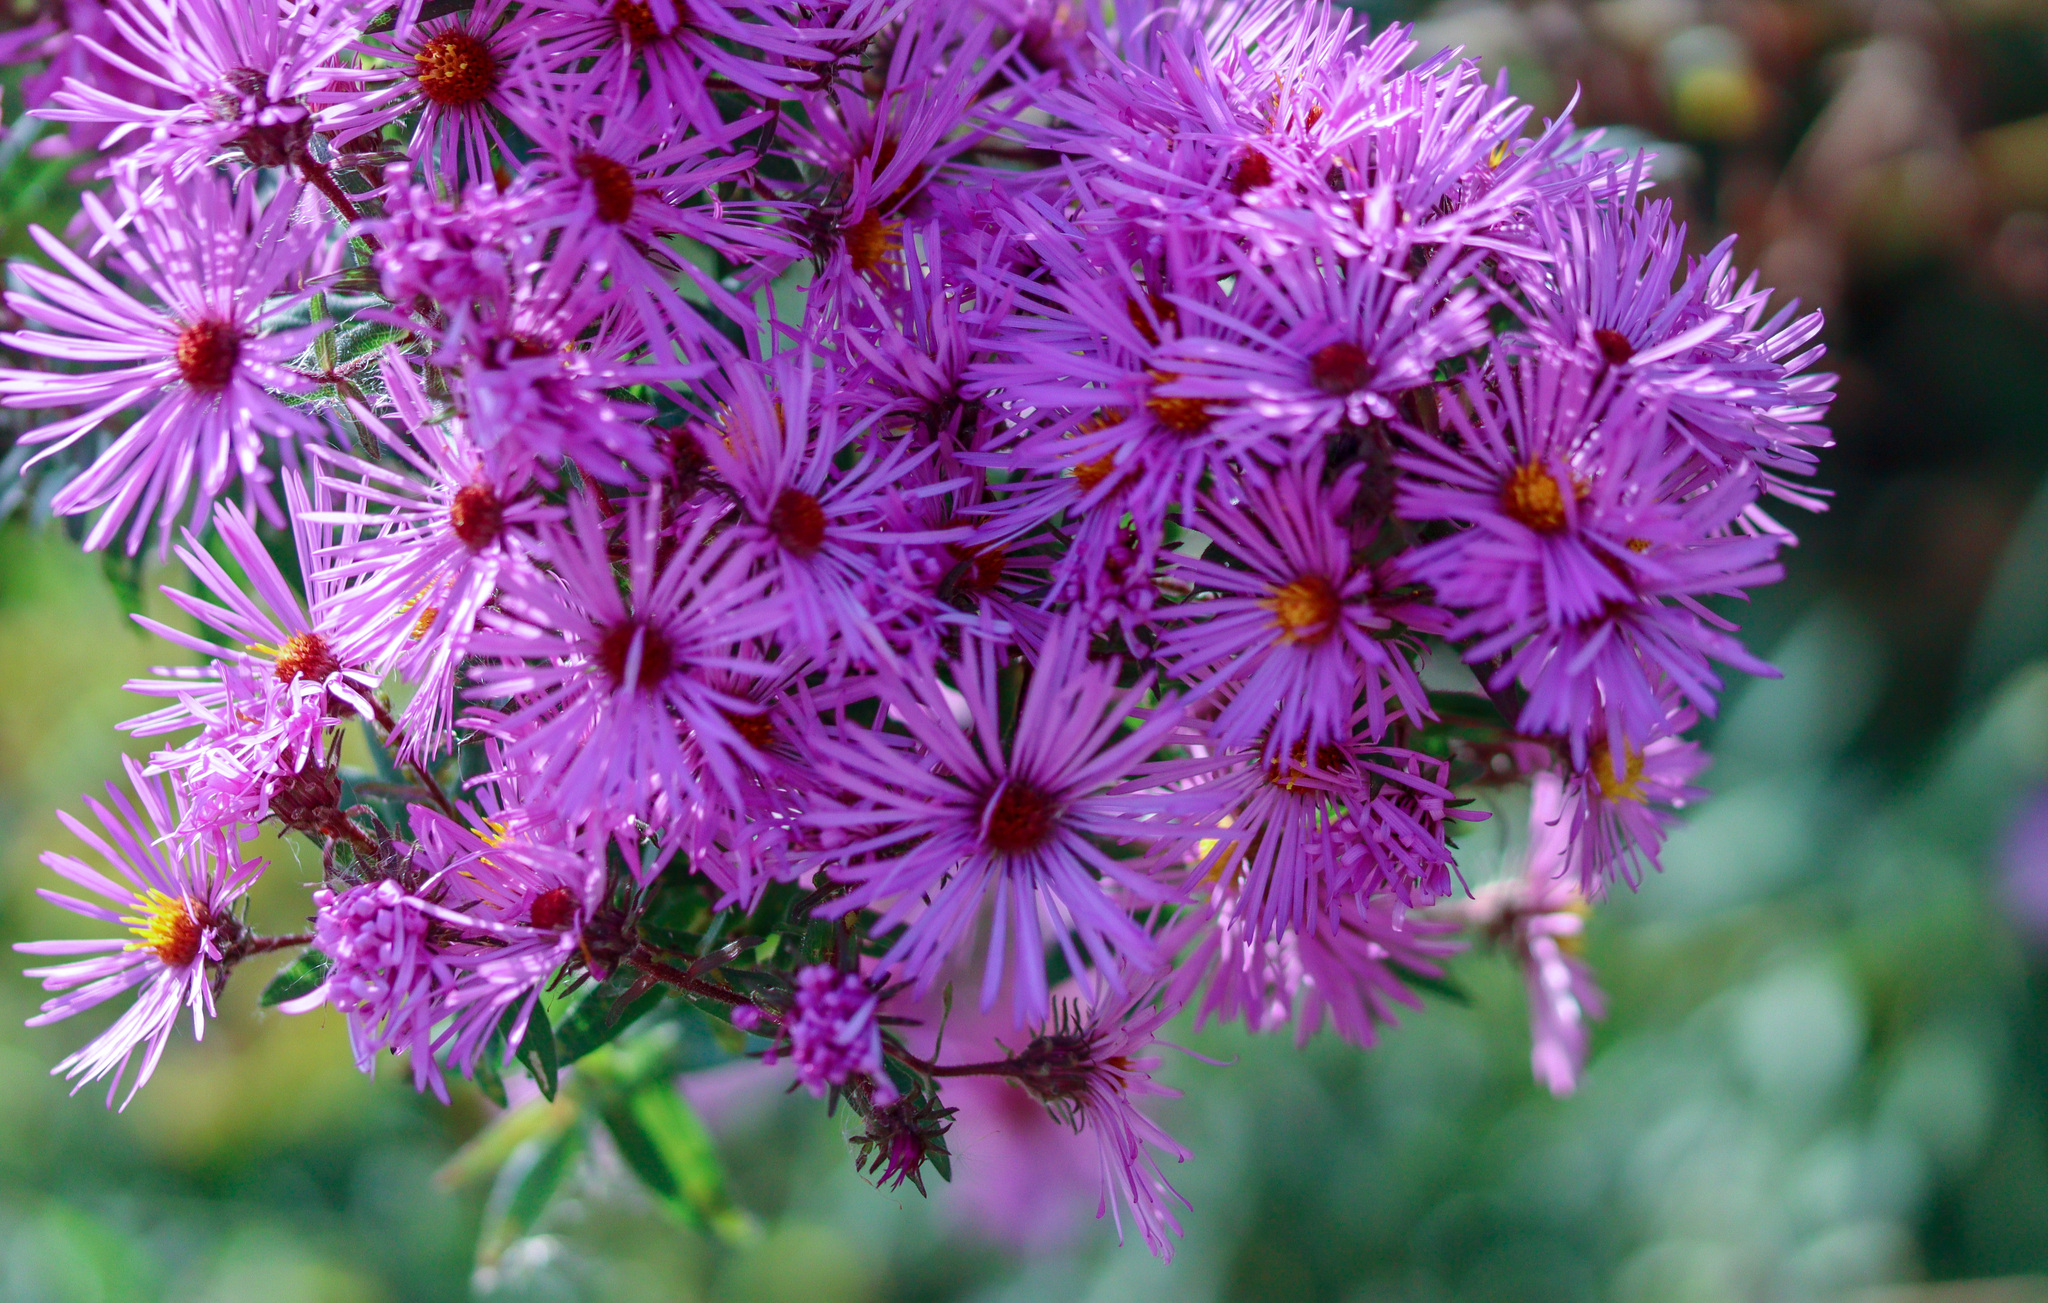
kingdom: Plantae
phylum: Tracheophyta
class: Magnoliopsida
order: Asterales
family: Asteraceae
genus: Symphyotrichum
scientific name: Symphyotrichum novae-angliae
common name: Michaelmas daisy
